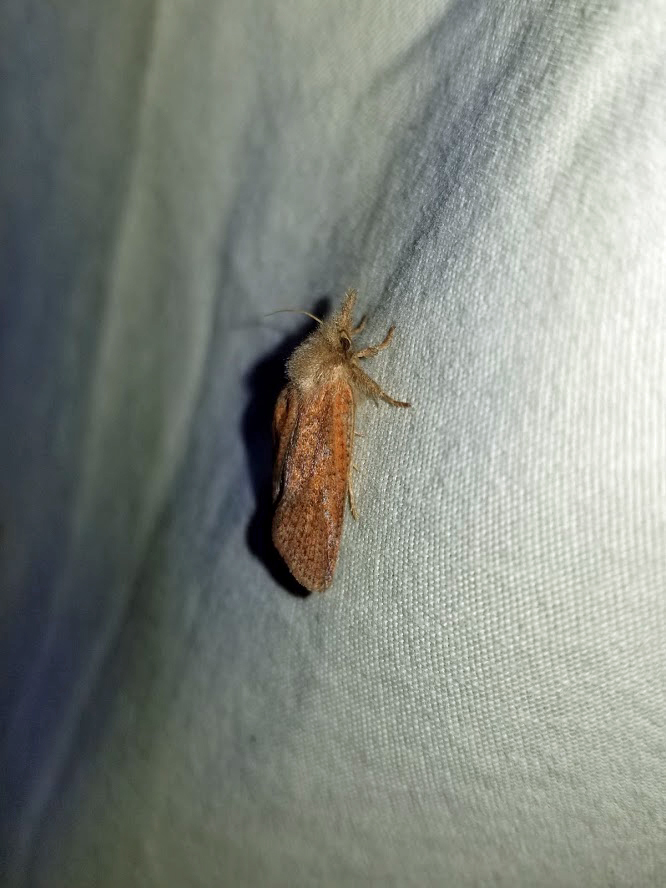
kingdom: Animalia
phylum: Arthropoda
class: Insecta
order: Lepidoptera
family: Tineidae
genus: Acrolophus
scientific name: Acrolophus plumifrontella
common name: Eastern grass tubeworm moth
